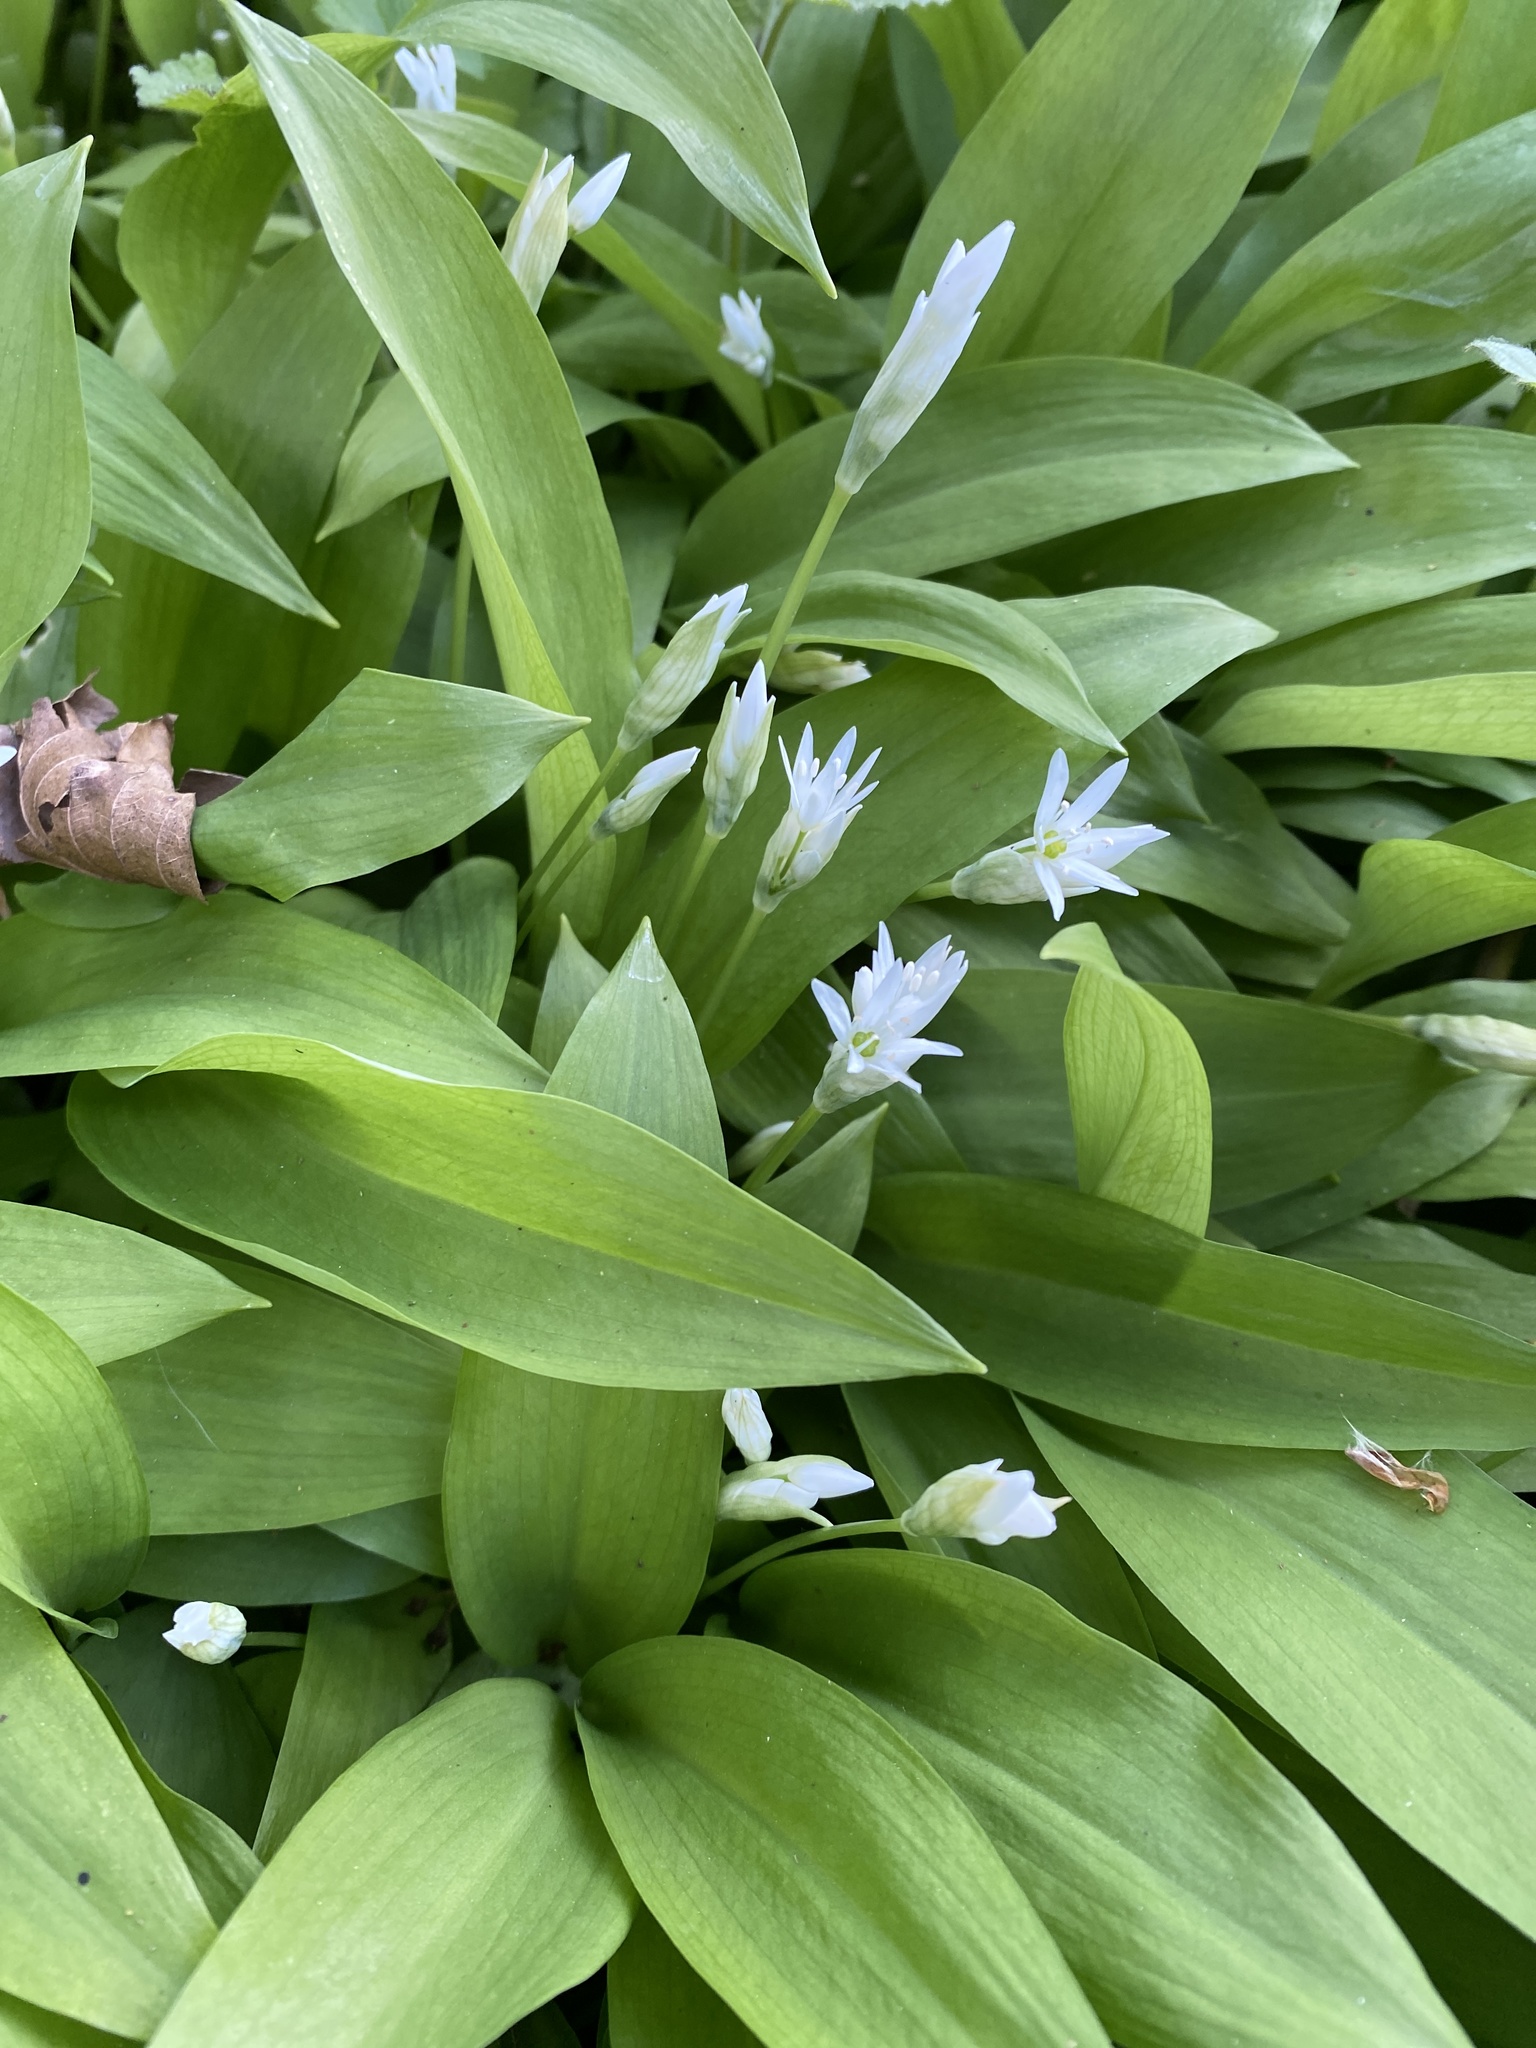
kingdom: Plantae
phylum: Tracheophyta
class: Liliopsida
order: Asparagales
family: Amaryllidaceae
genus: Allium
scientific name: Allium ursinum
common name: Ramsons
